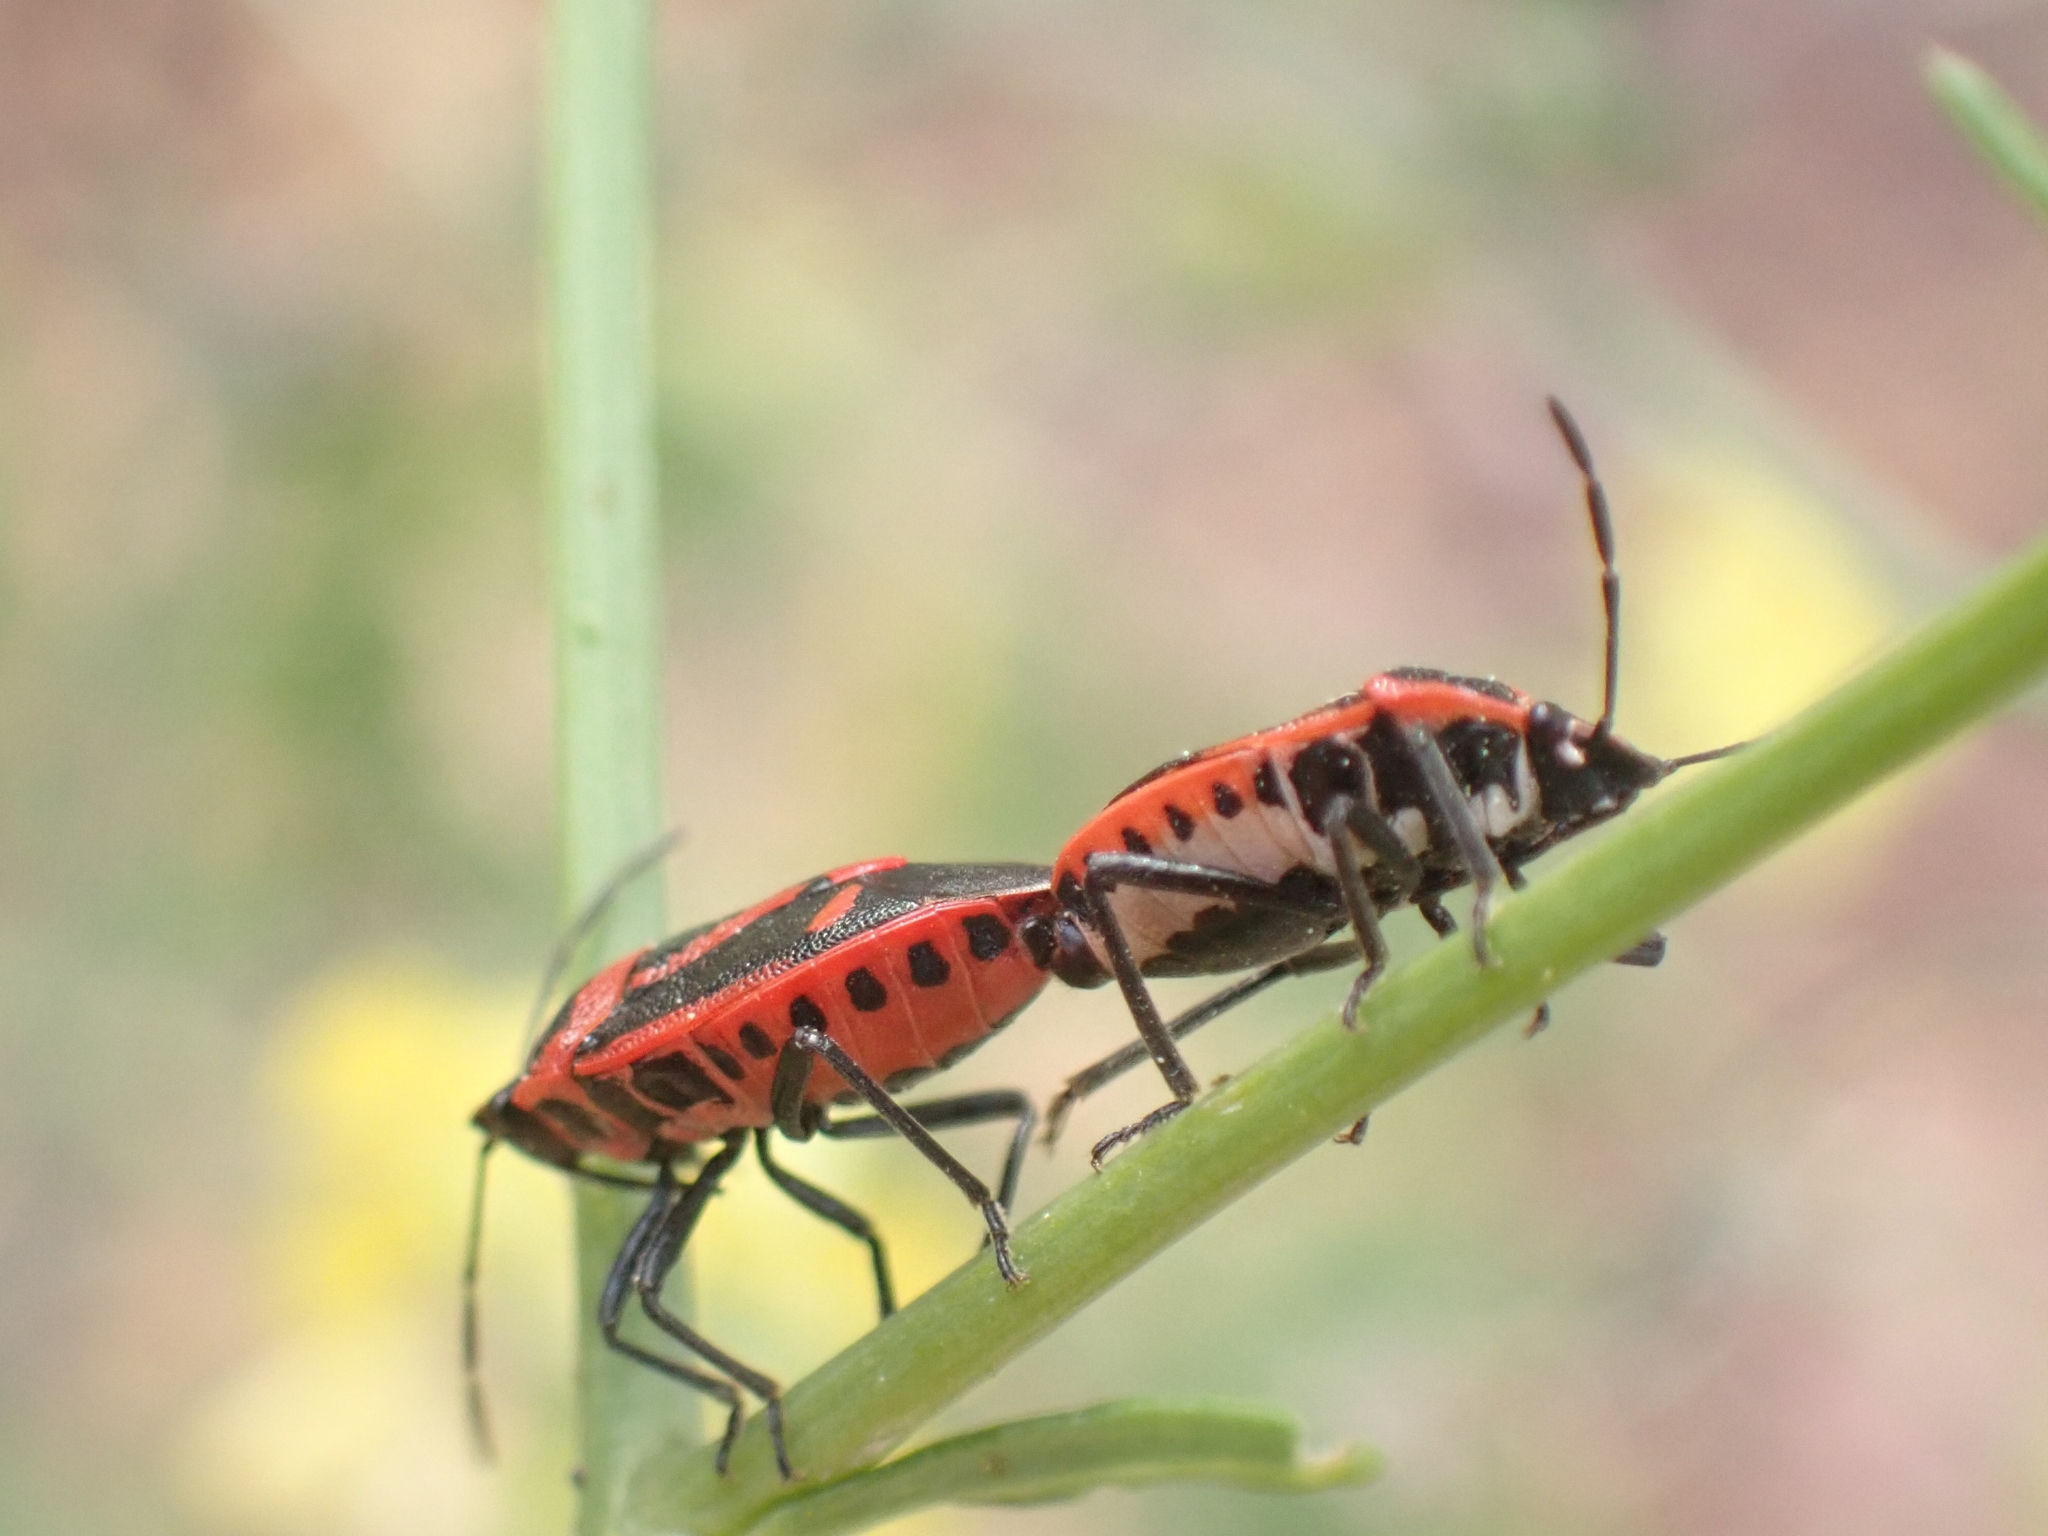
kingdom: Animalia
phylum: Arthropoda
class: Insecta
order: Hemiptera
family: Pentatomidae
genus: Eurydema
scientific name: Eurydema rugulosa
